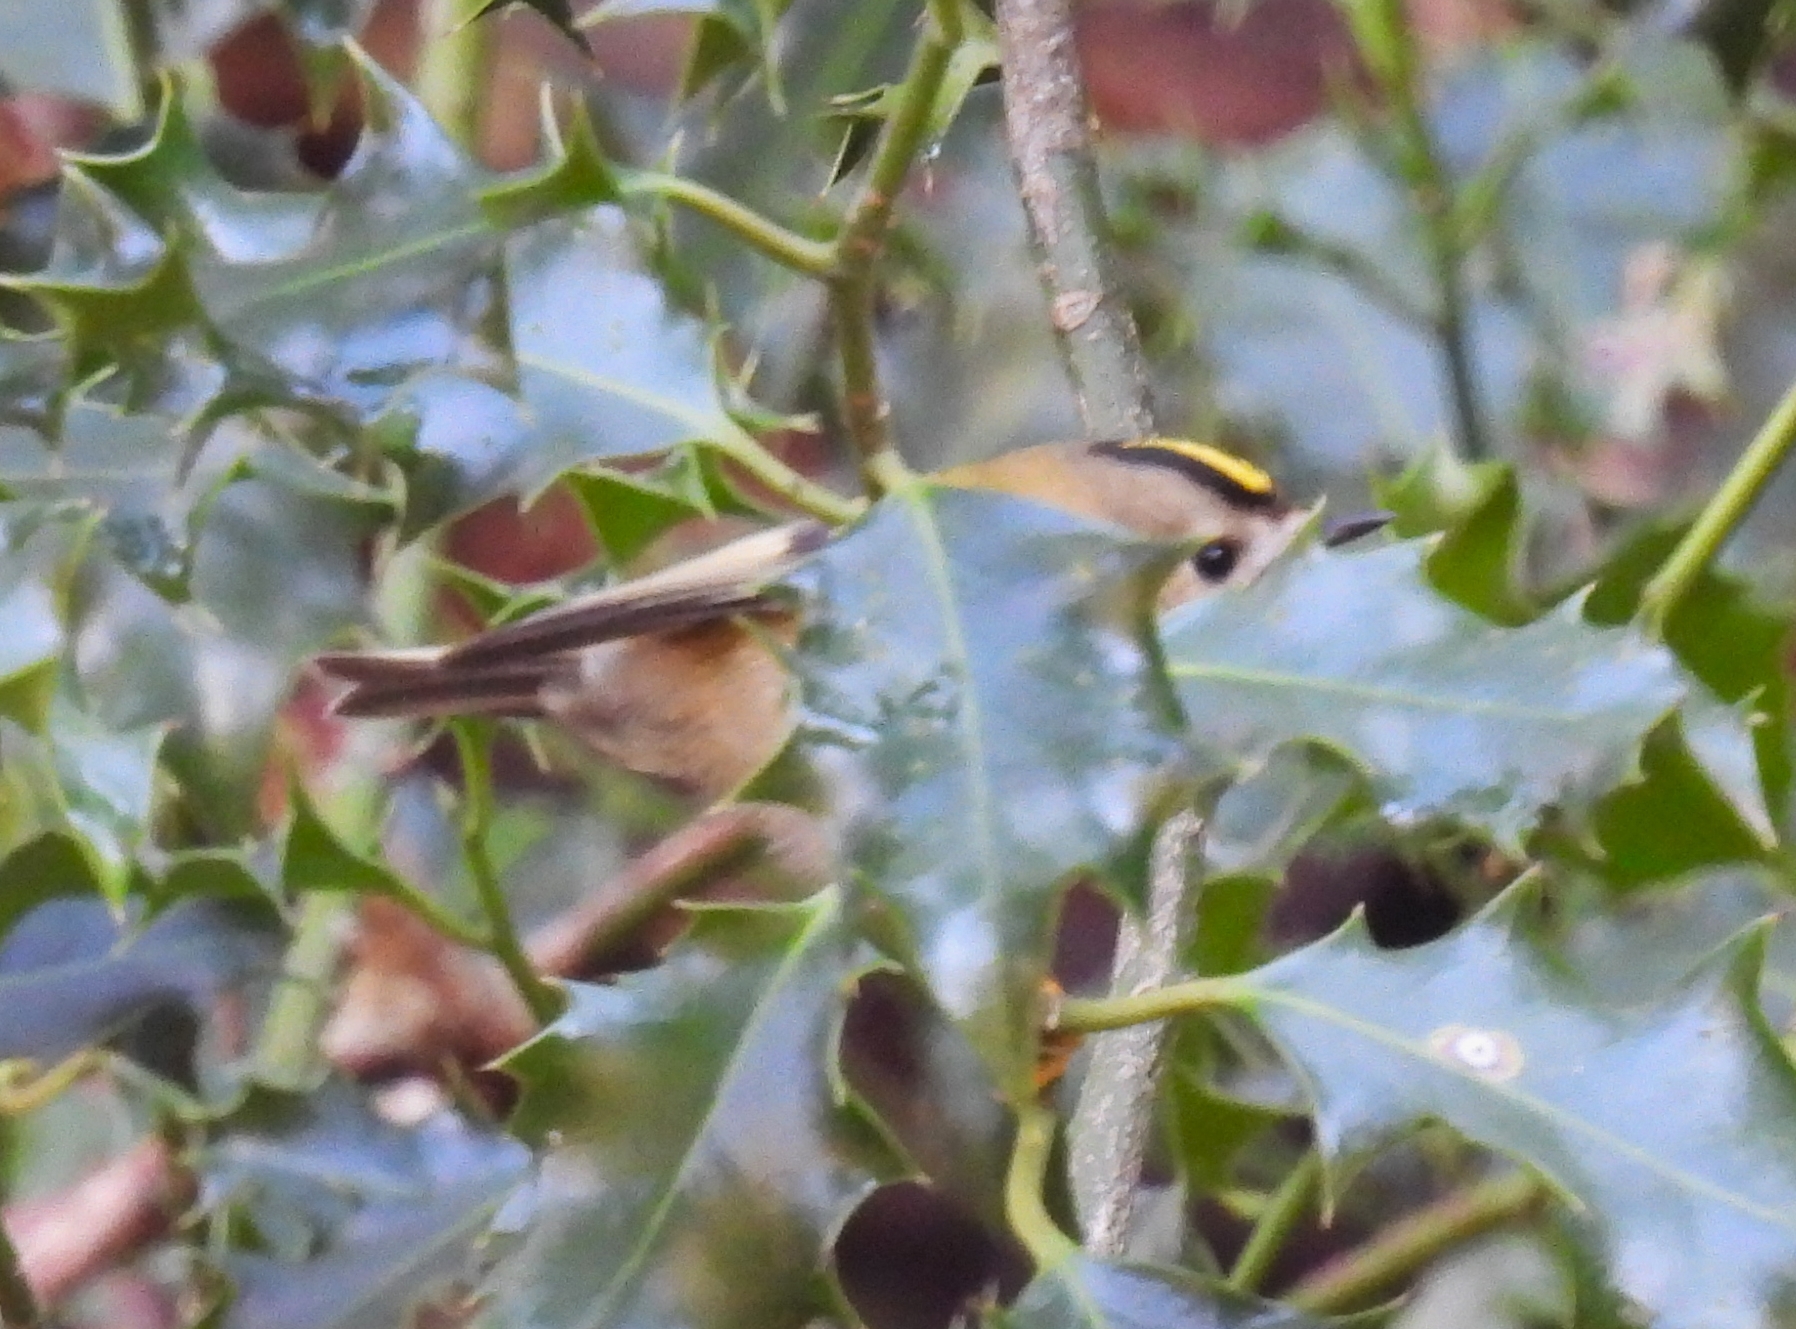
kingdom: Animalia
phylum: Chordata
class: Aves
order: Passeriformes
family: Regulidae
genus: Regulus
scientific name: Regulus regulus
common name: Goldcrest
